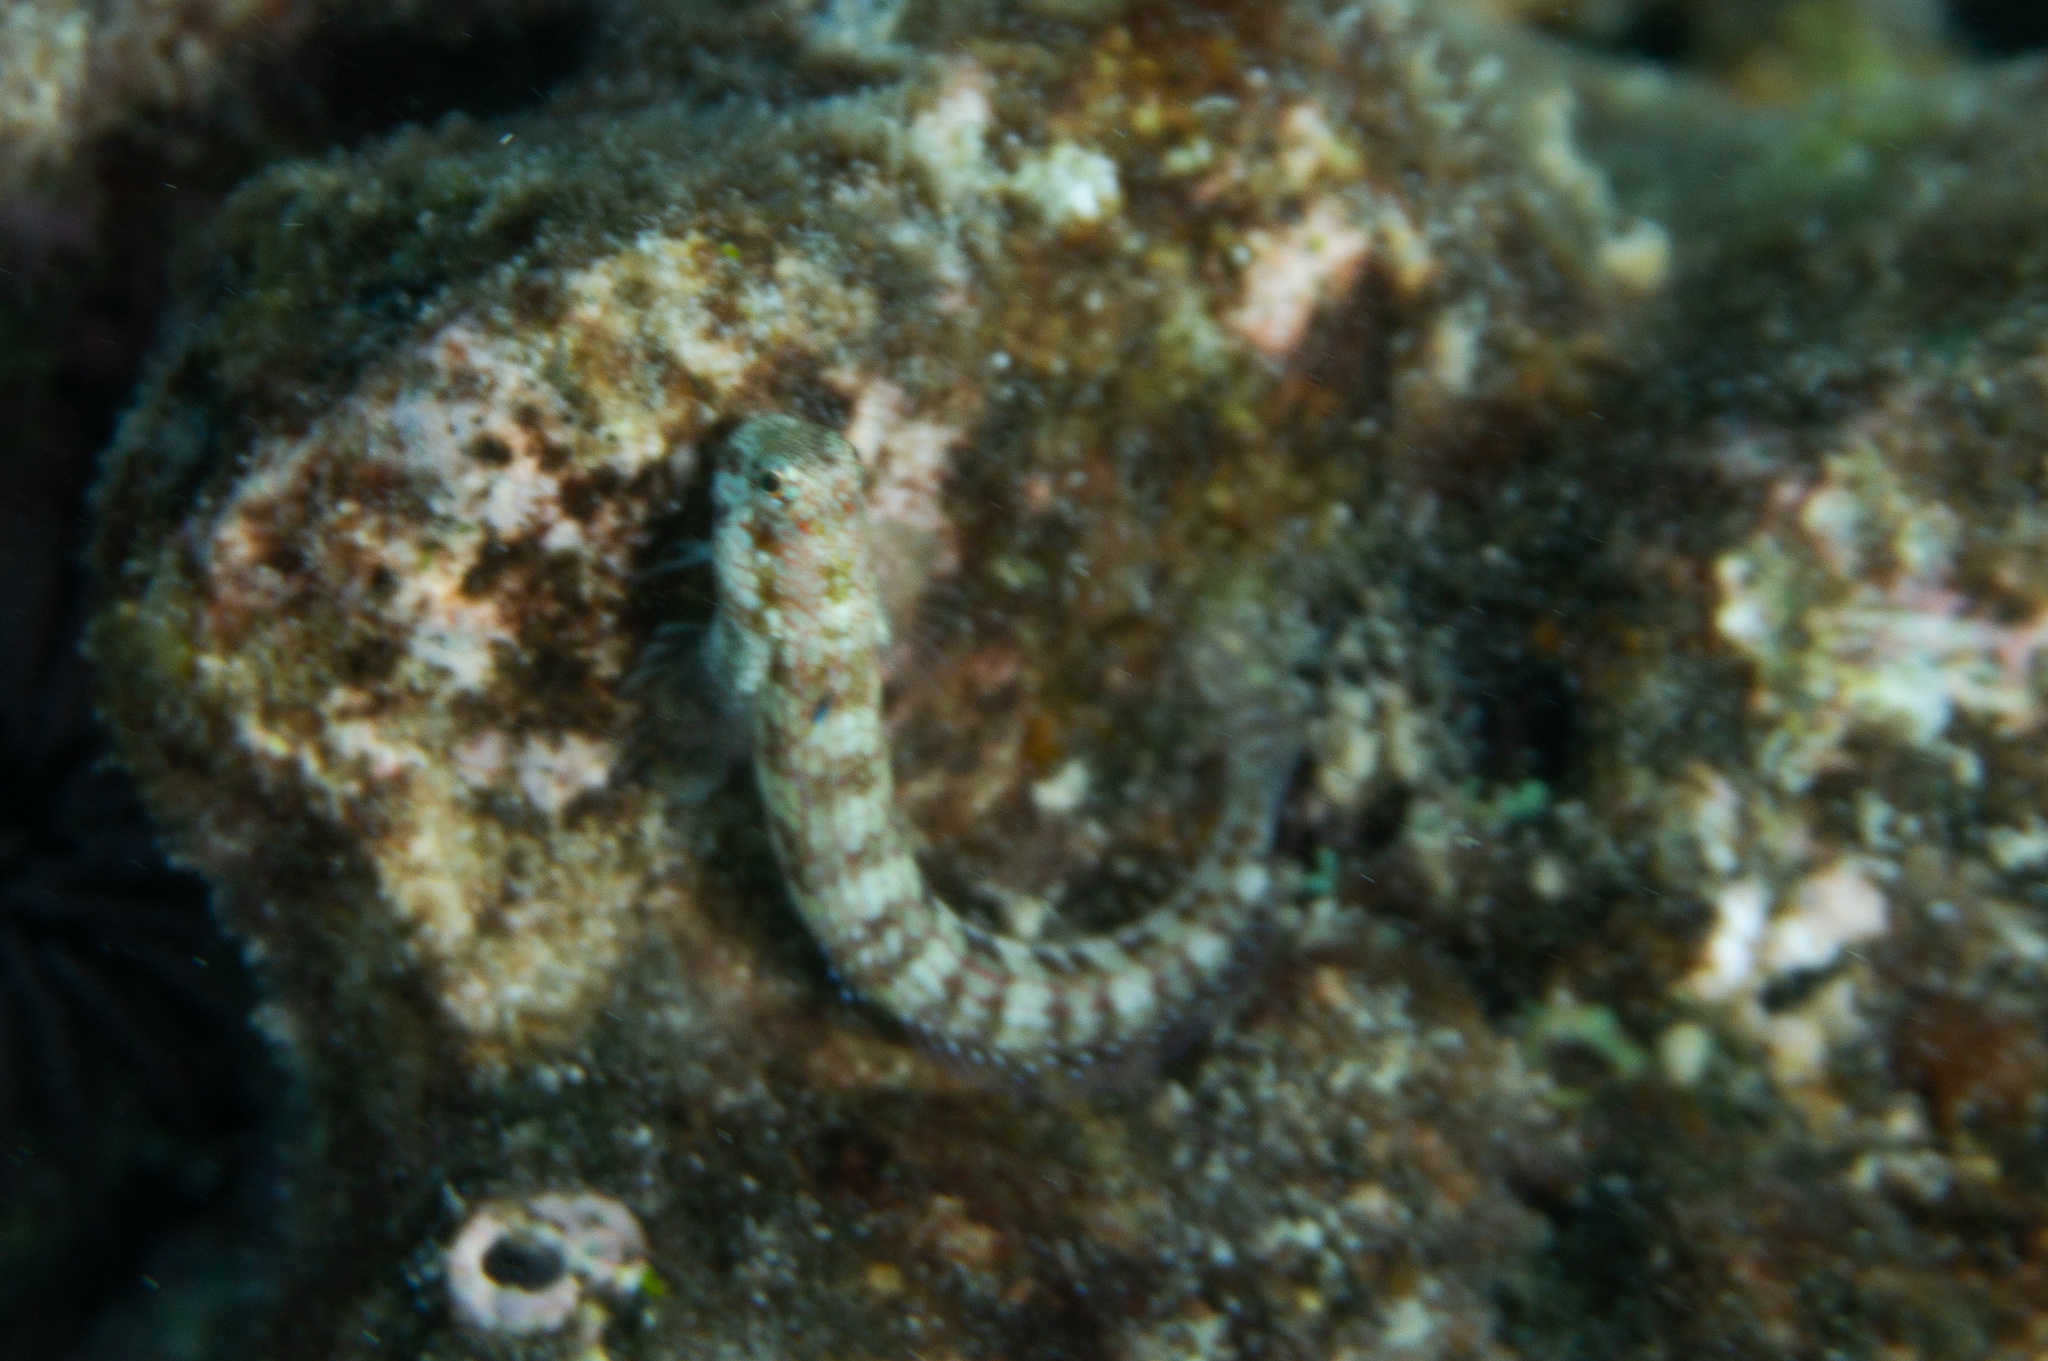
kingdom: Animalia
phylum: Chordata
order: Perciformes
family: Blenniidae
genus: Blenniella
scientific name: Blenniella gibbifrons
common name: Picture rockskipper
